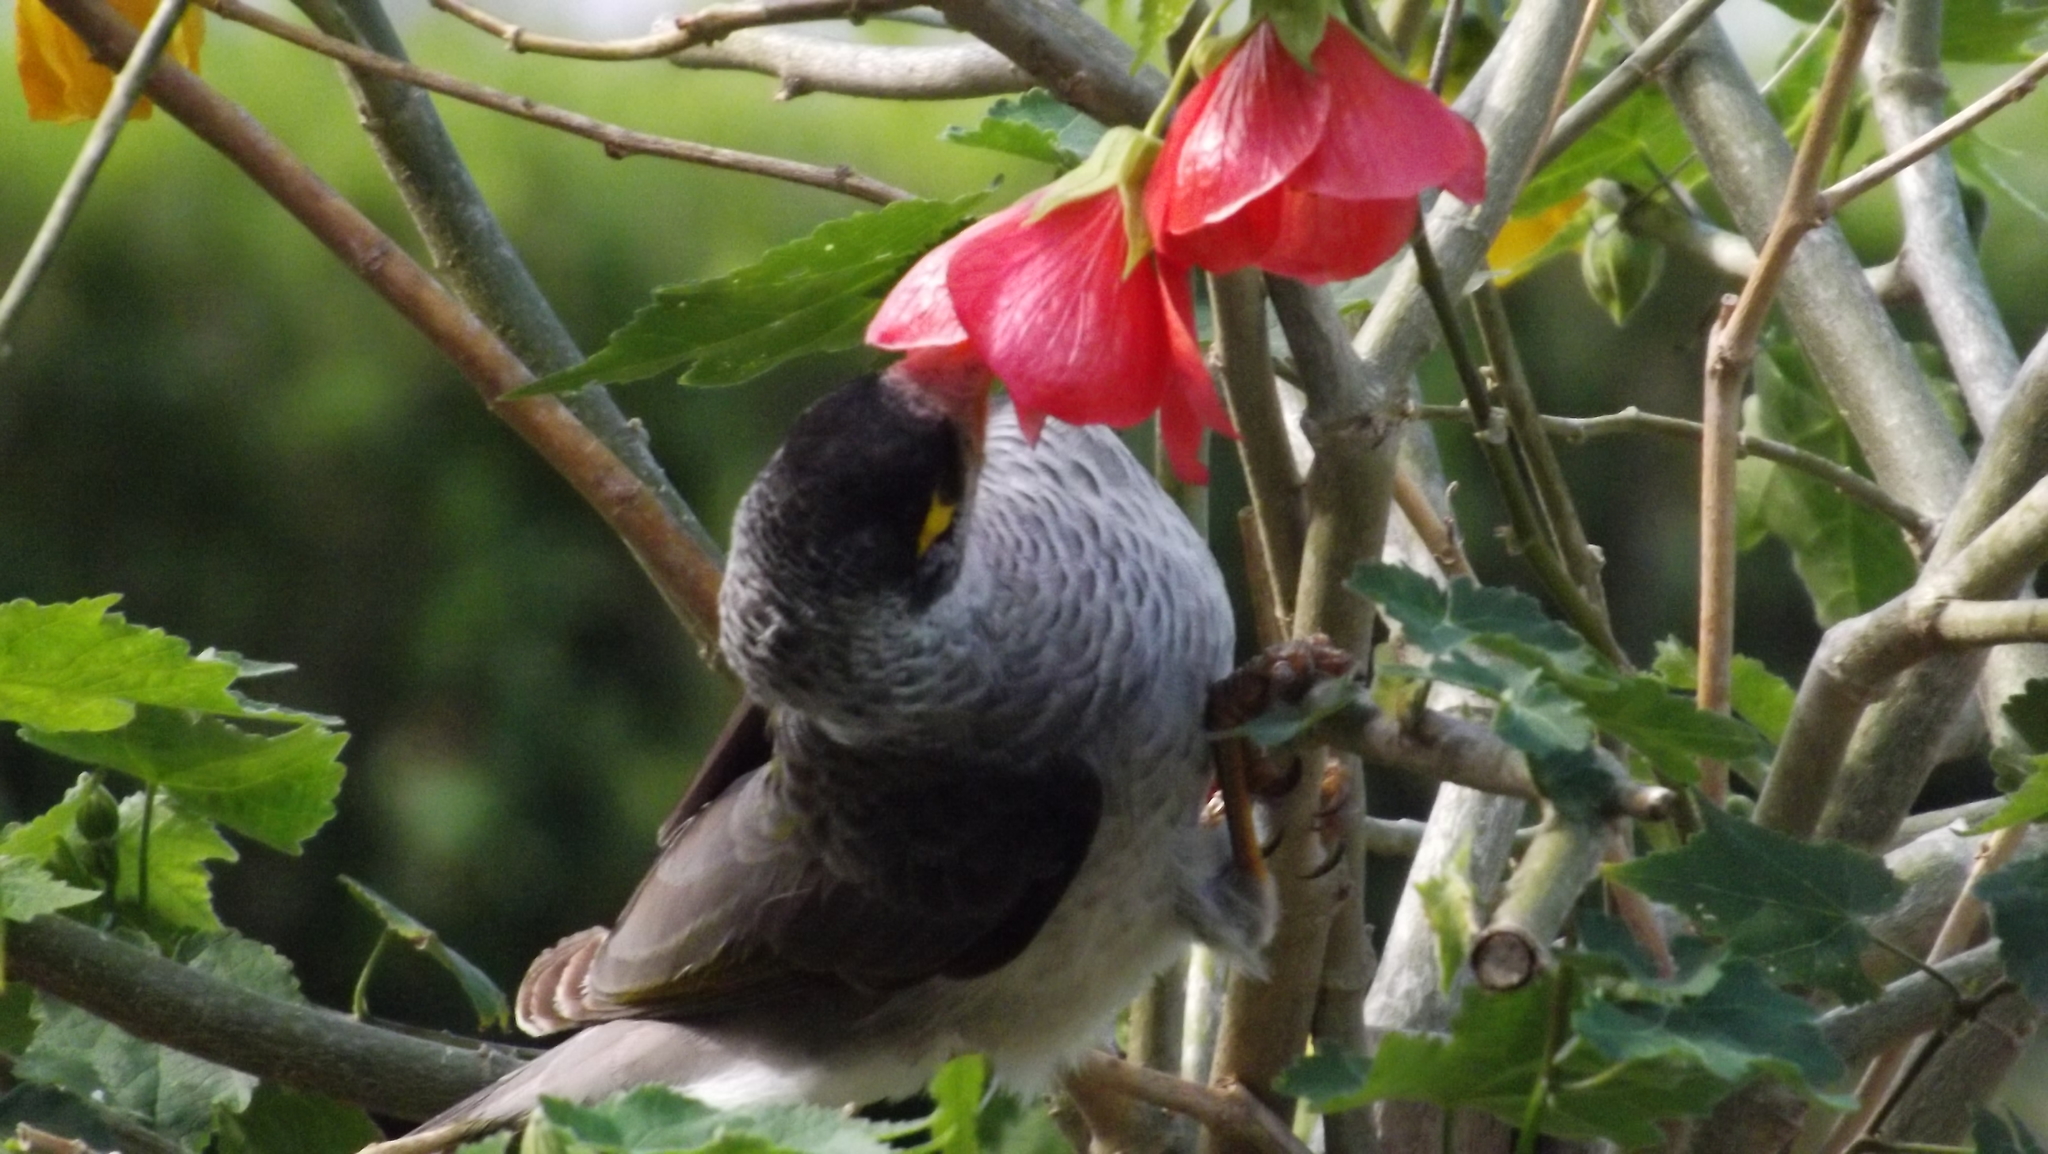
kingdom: Animalia
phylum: Chordata
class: Aves
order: Passeriformes
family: Meliphagidae
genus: Manorina
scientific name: Manorina melanocephala
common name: Noisy miner
